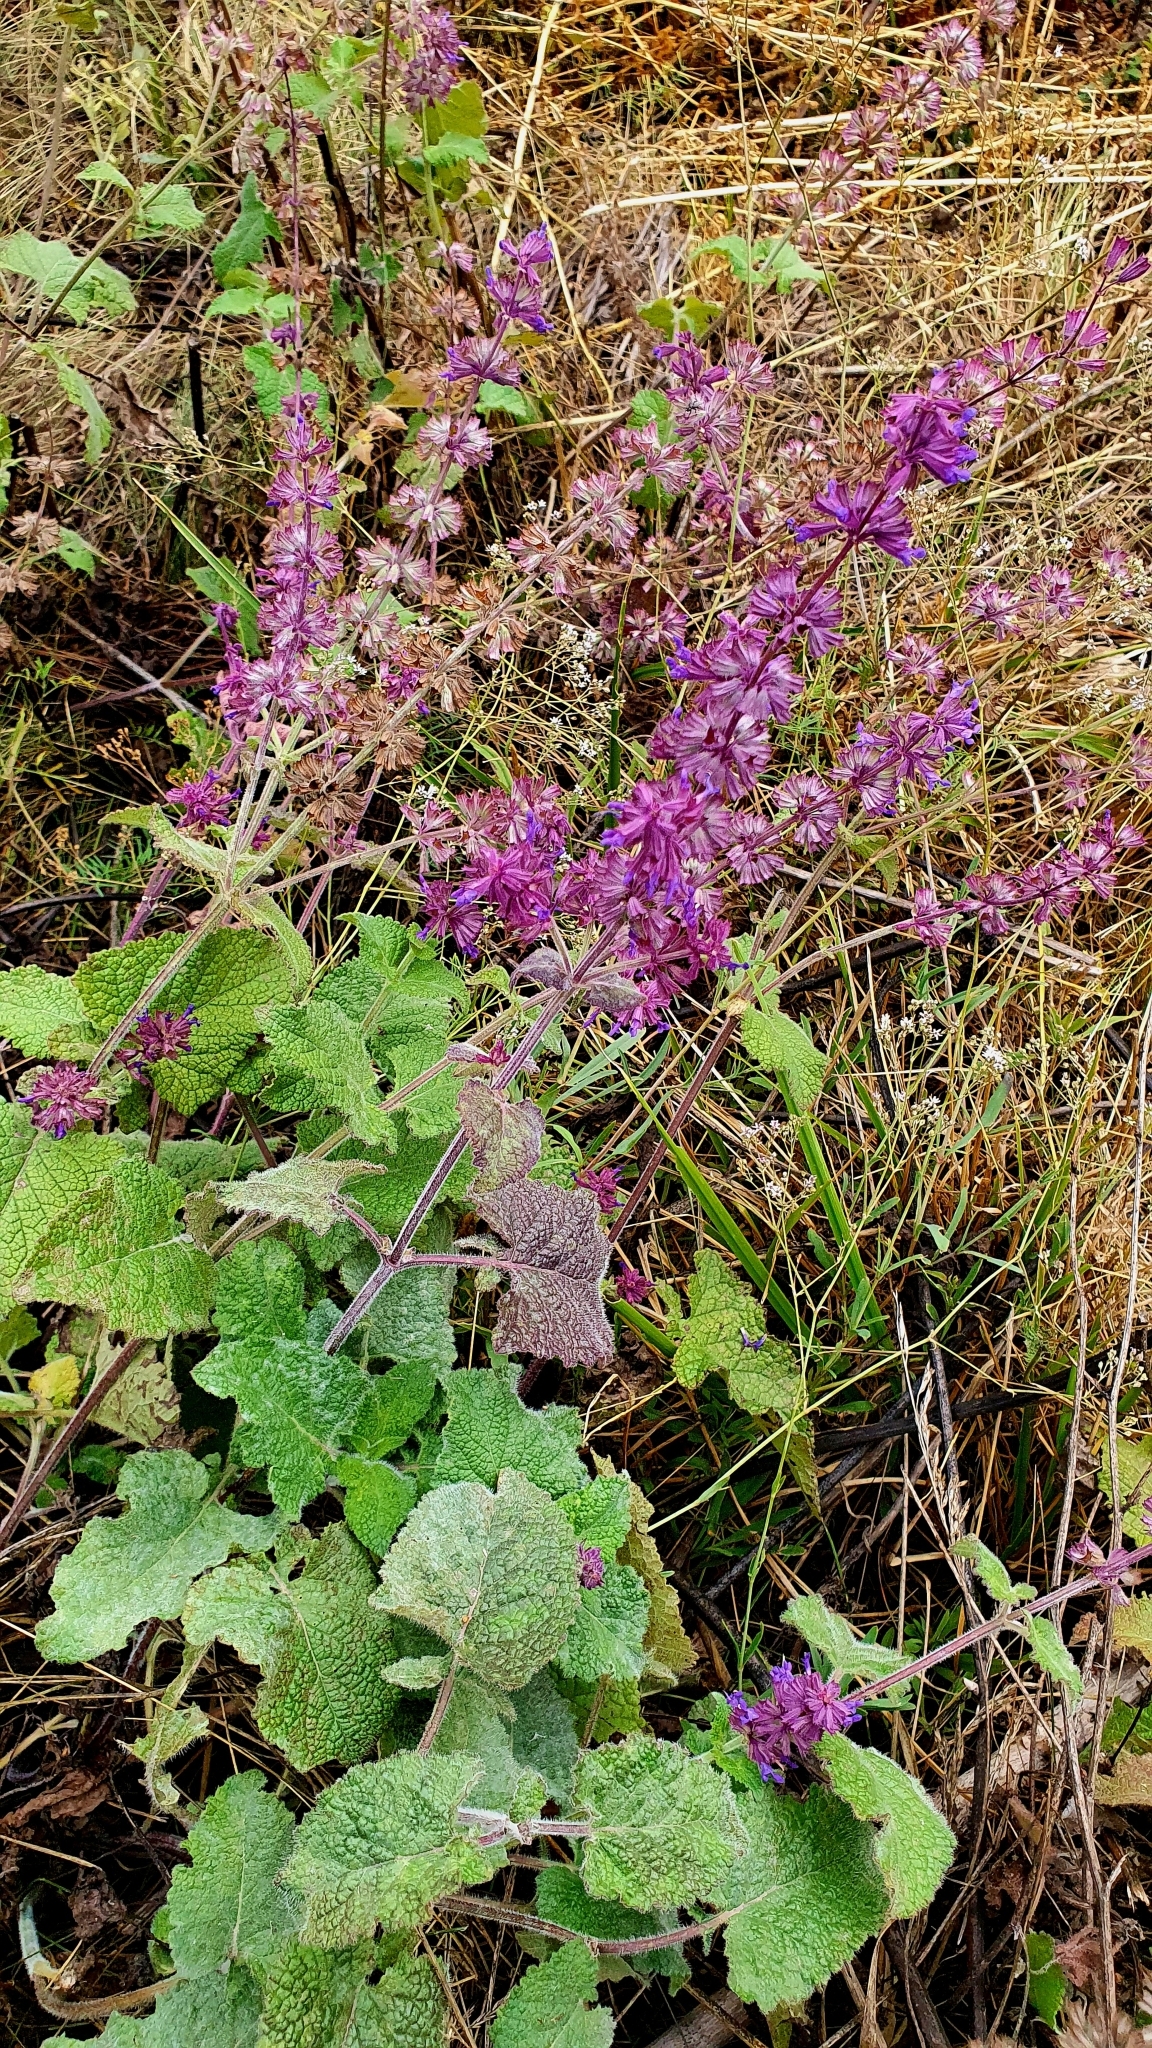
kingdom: Plantae
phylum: Tracheophyta
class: Magnoliopsida
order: Lamiales
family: Lamiaceae
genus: Salvia
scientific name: Salvia verticillata
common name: Whorled clary
